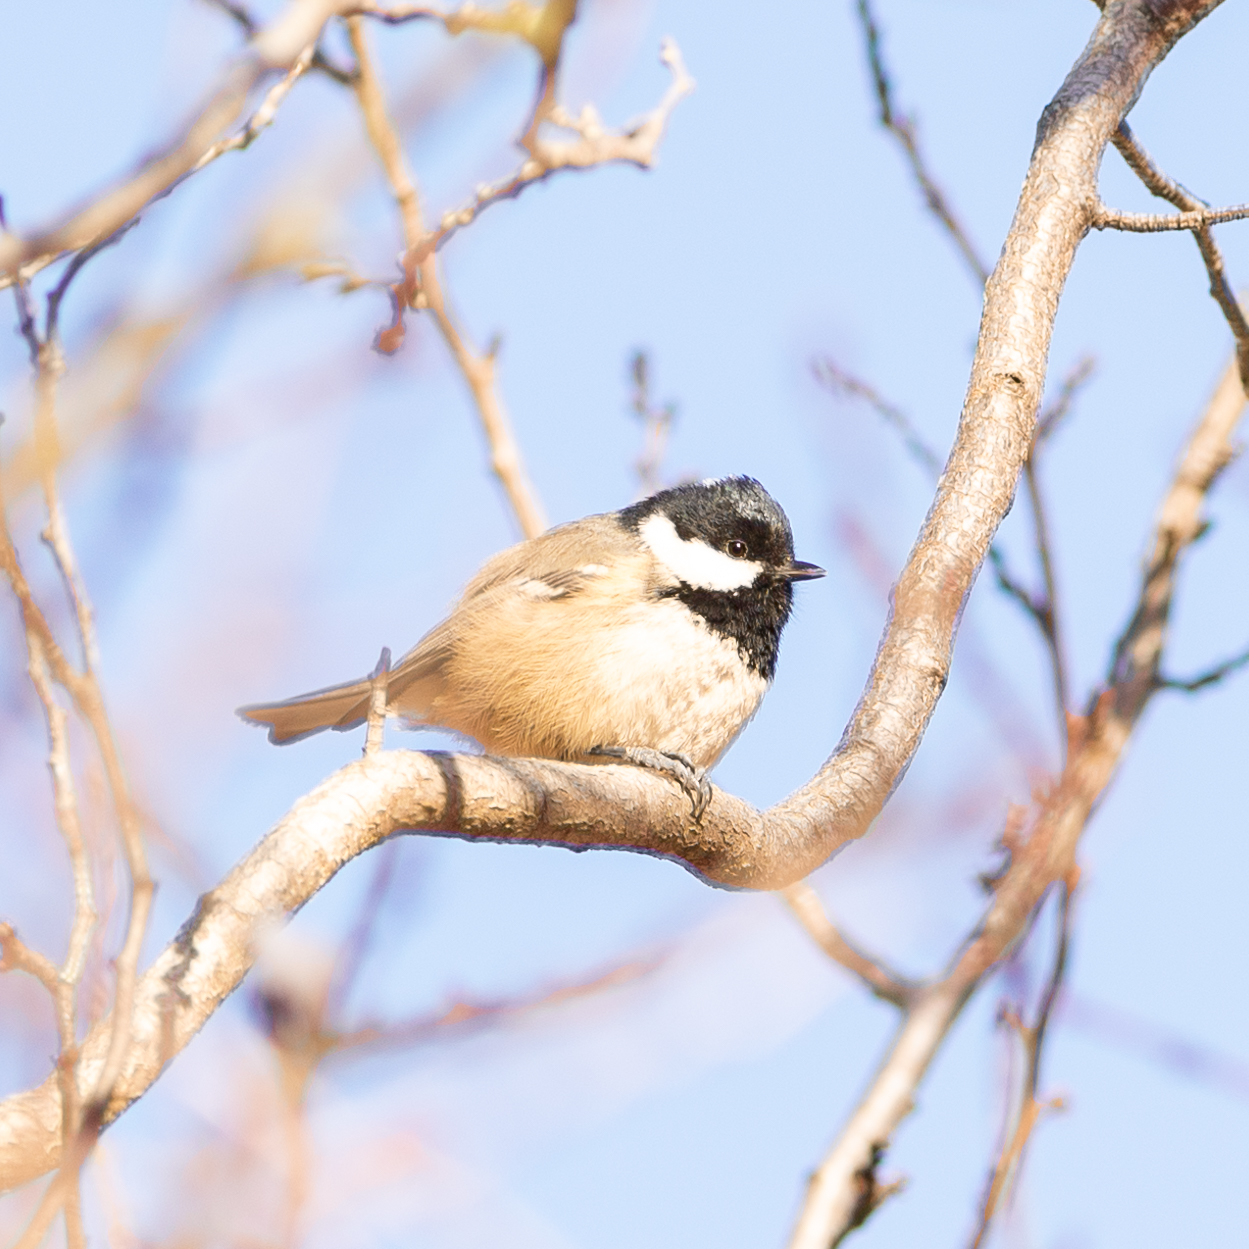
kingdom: Animalia
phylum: Chordata
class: Aves
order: Passeriformes
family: Paridae
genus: Periparus
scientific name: Periparus ater
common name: Coal tit
